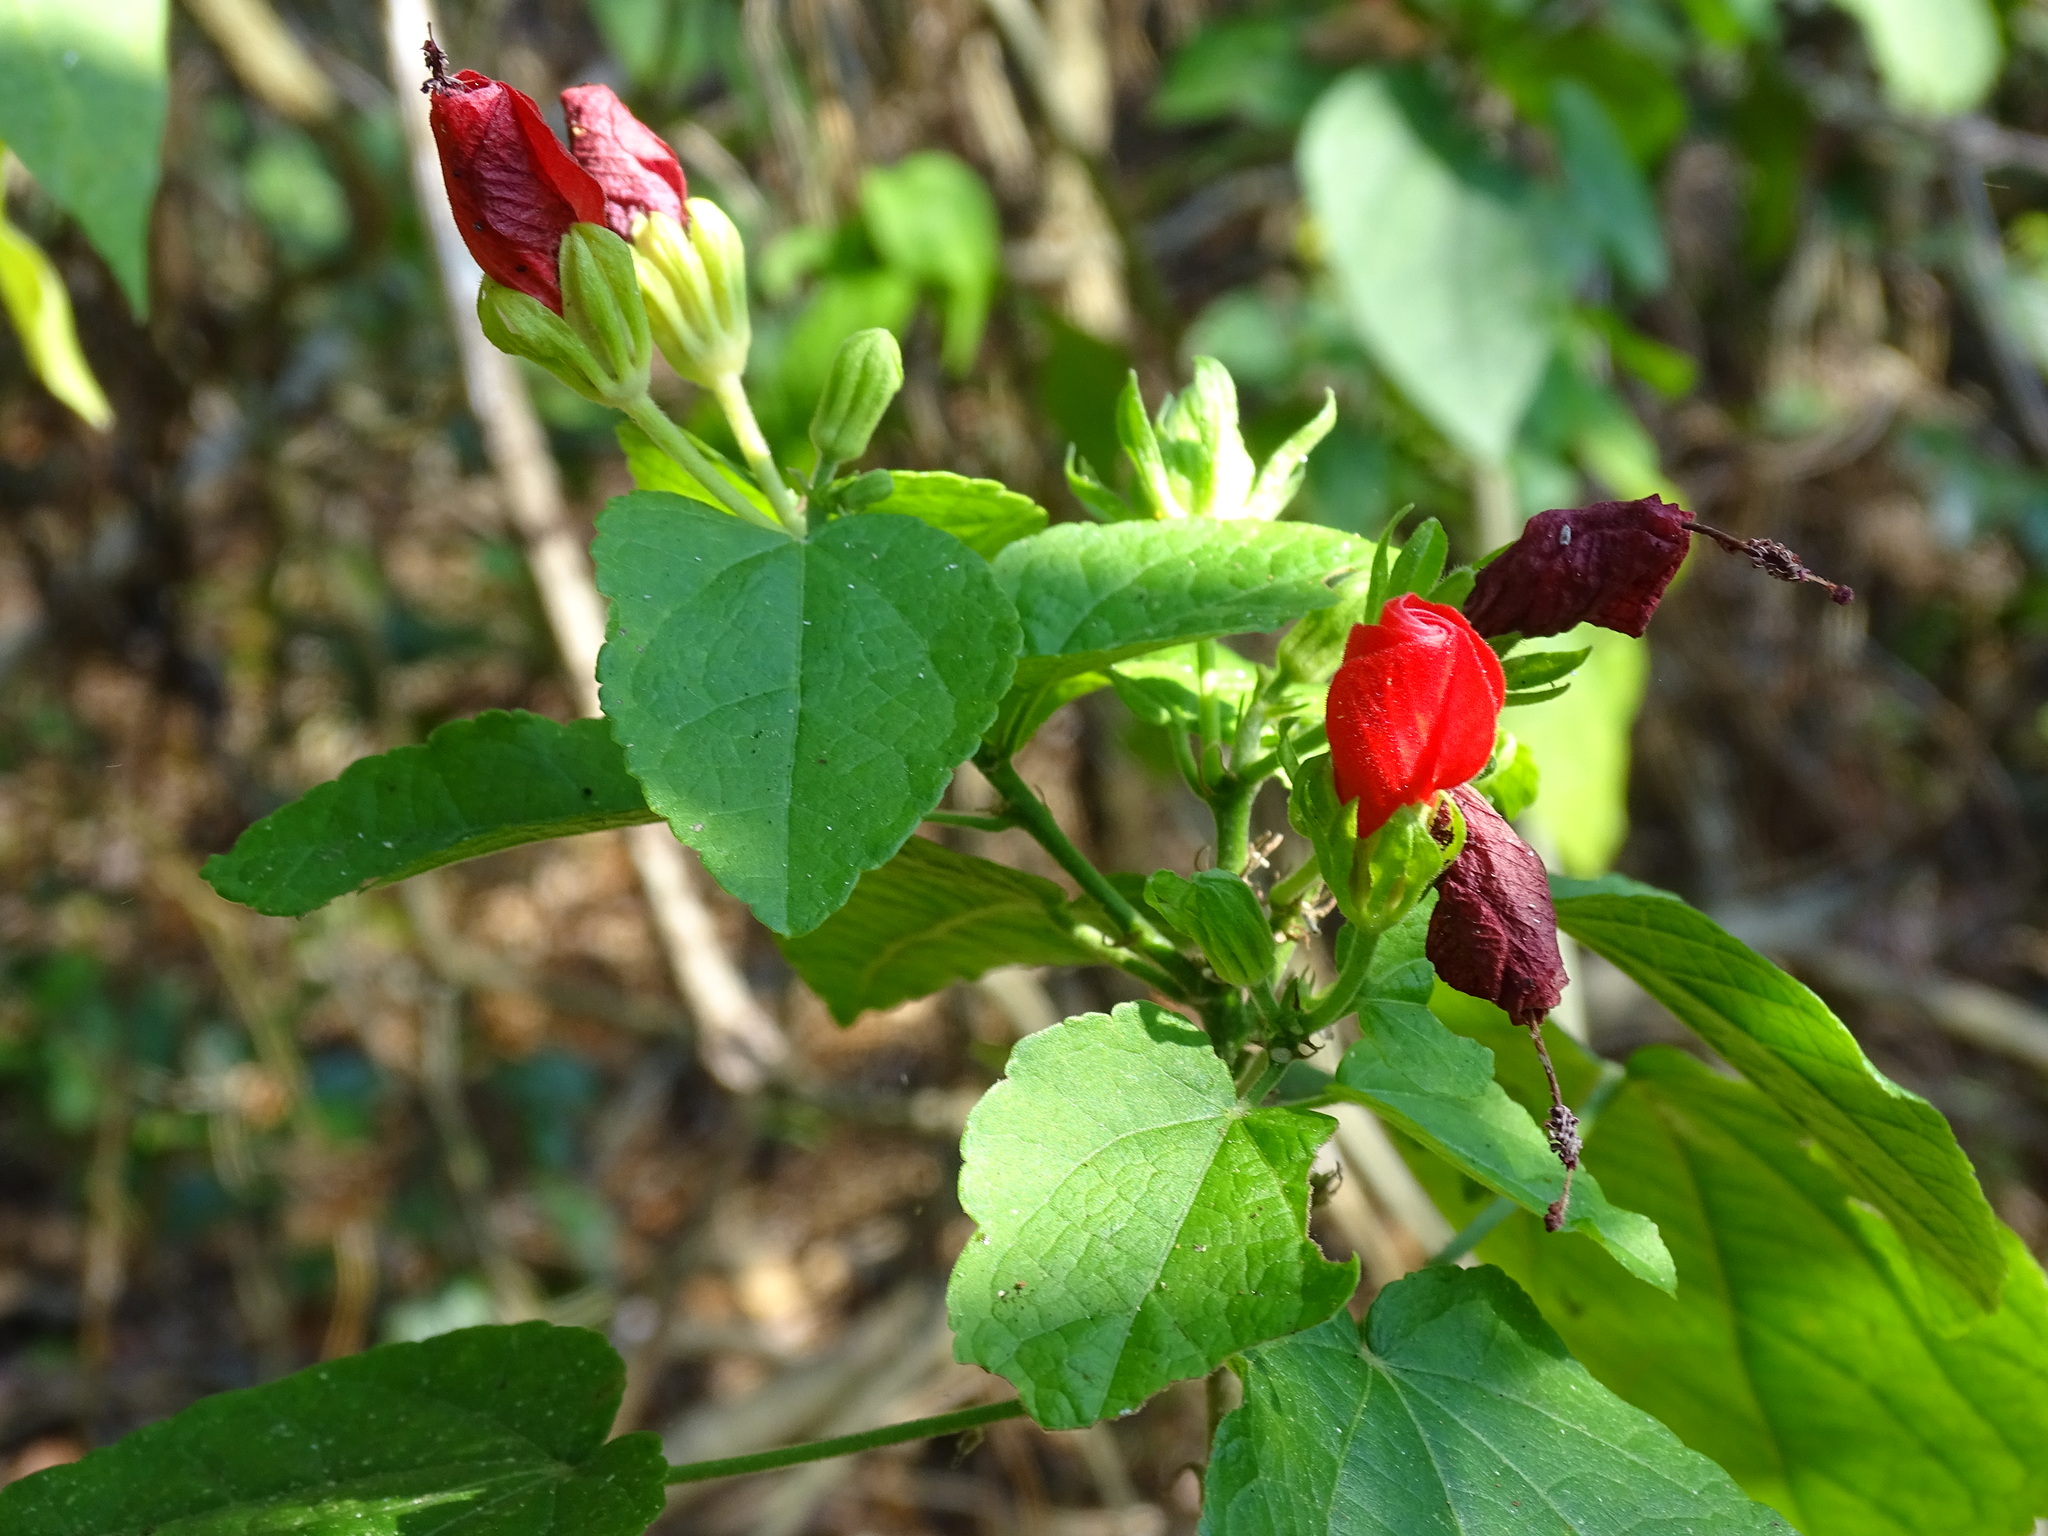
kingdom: Plantae
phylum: Tracheophyta
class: Magnoliopsida
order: Malvales
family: Malvaceae
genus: Malvaviscus
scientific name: Malvaviscus arboreus
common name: Wax mallow
